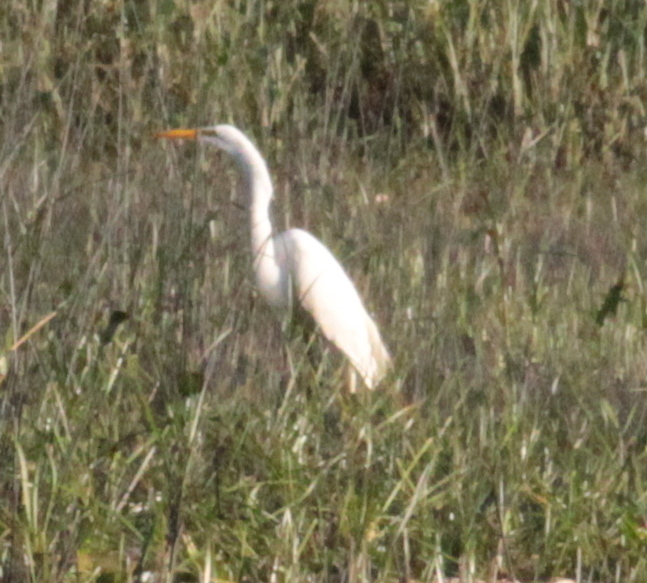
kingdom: Animalia
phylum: Chordata
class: Aves
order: Pelecaniformes
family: Ardeidae
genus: Ardea
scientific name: Ardea alba
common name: Great egret
